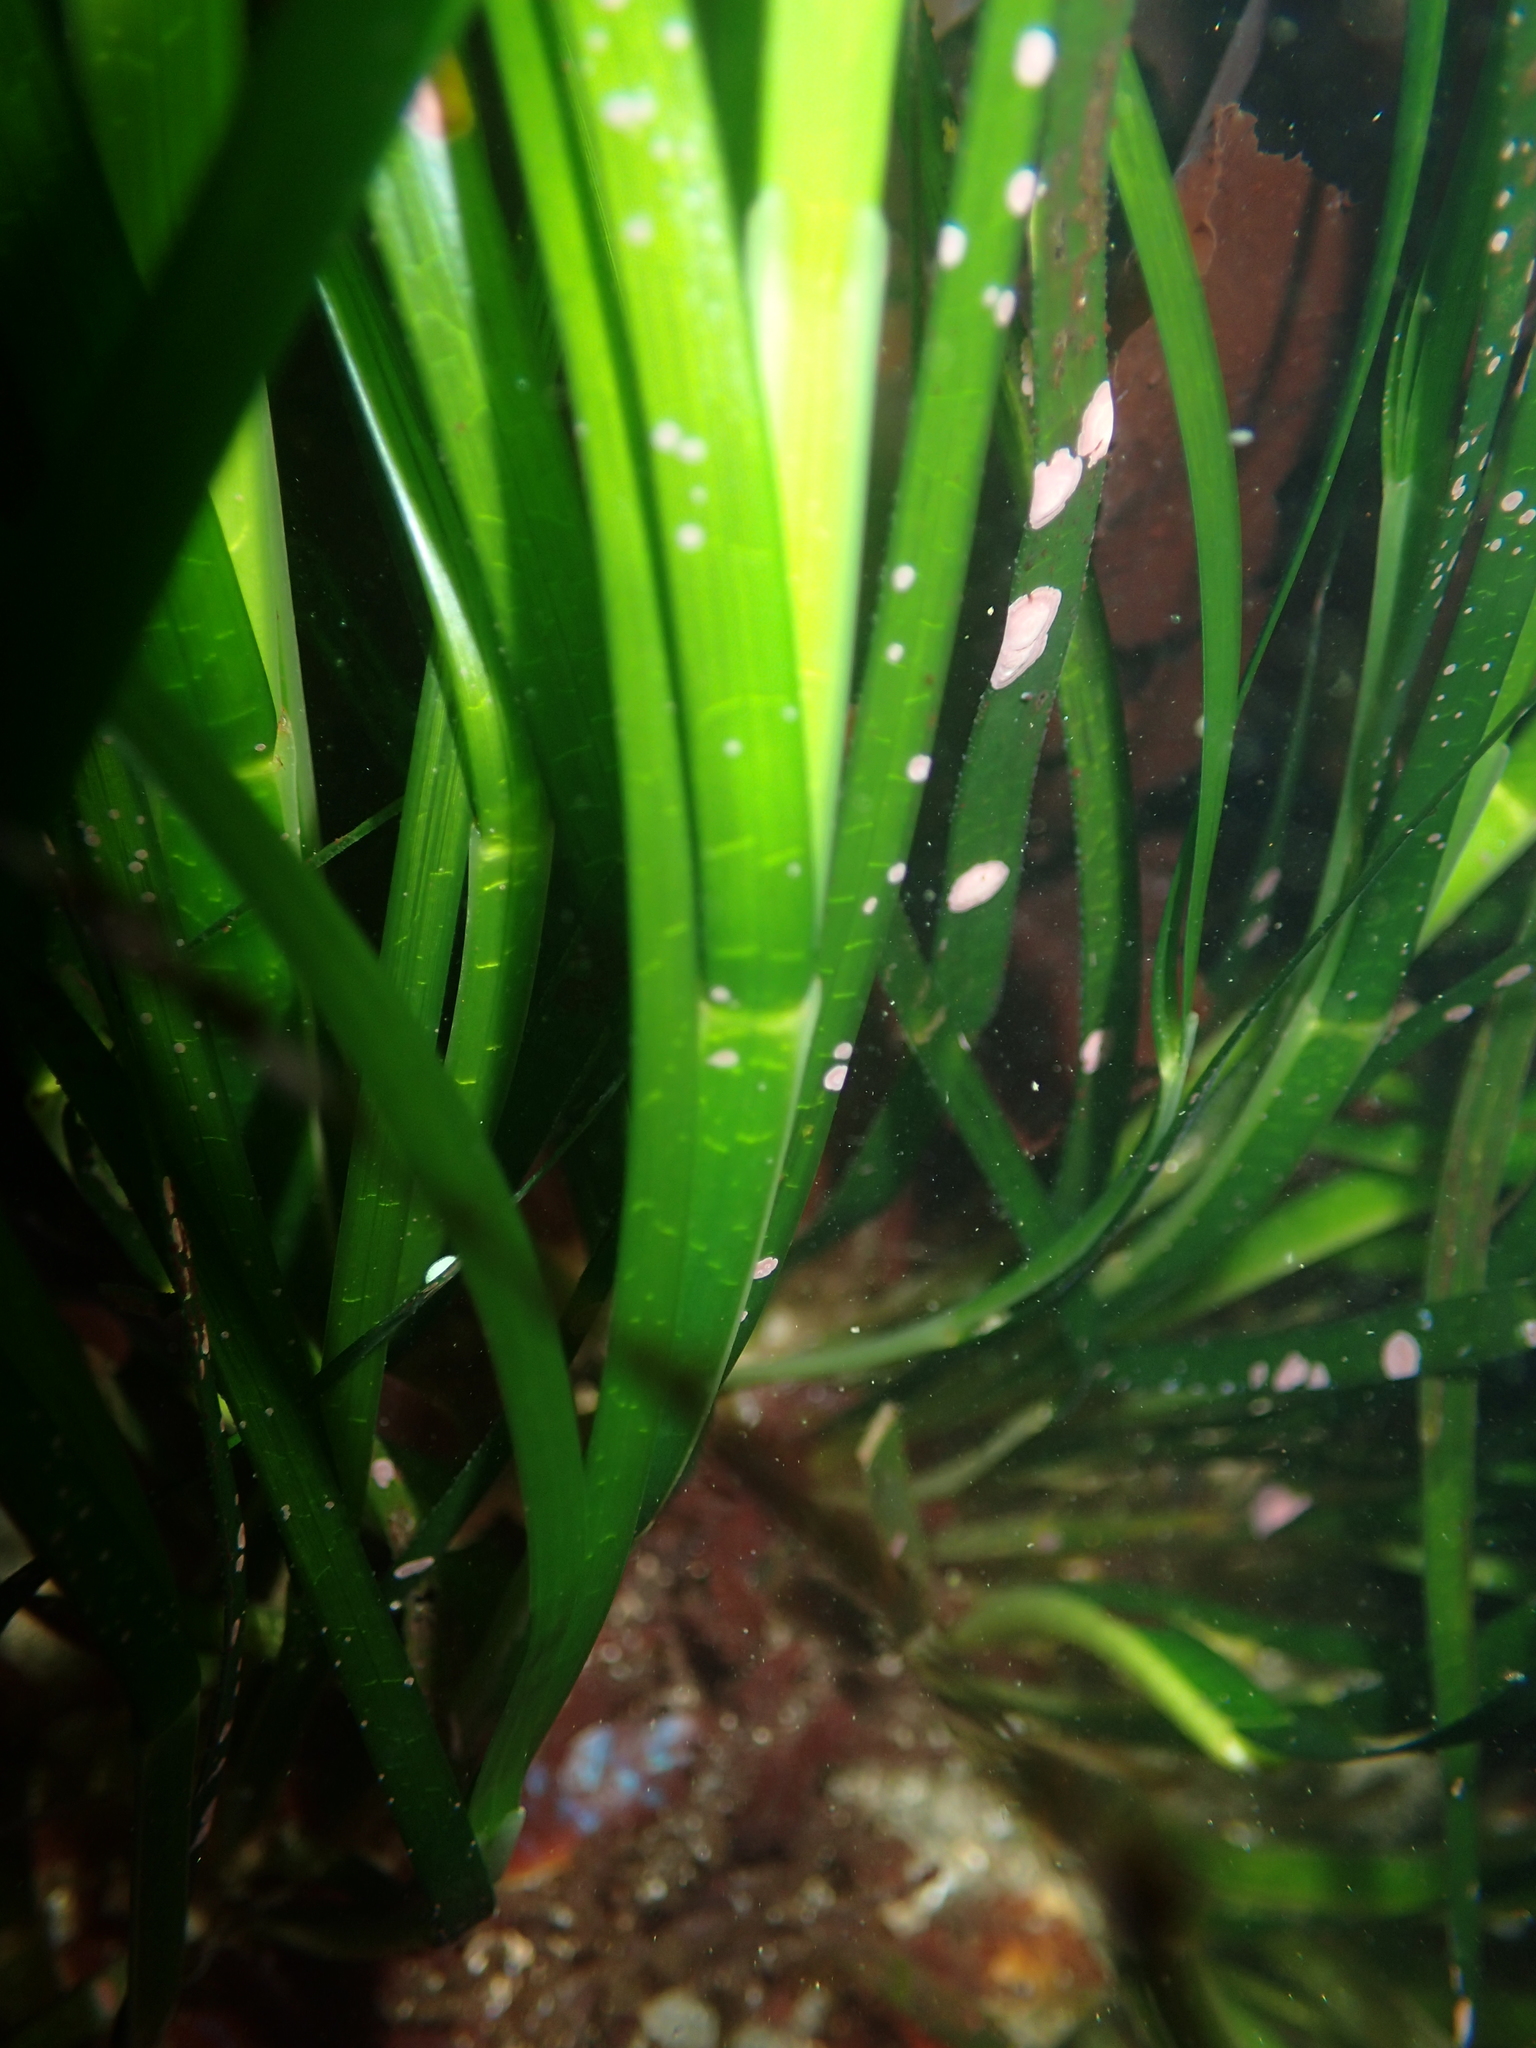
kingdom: Plantae
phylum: Tracheophyta
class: Liliopsida
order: Alismatales
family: Zosteraceae
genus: Phyllospadix
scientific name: Phyllospadix scouleri
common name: Species code: ps
